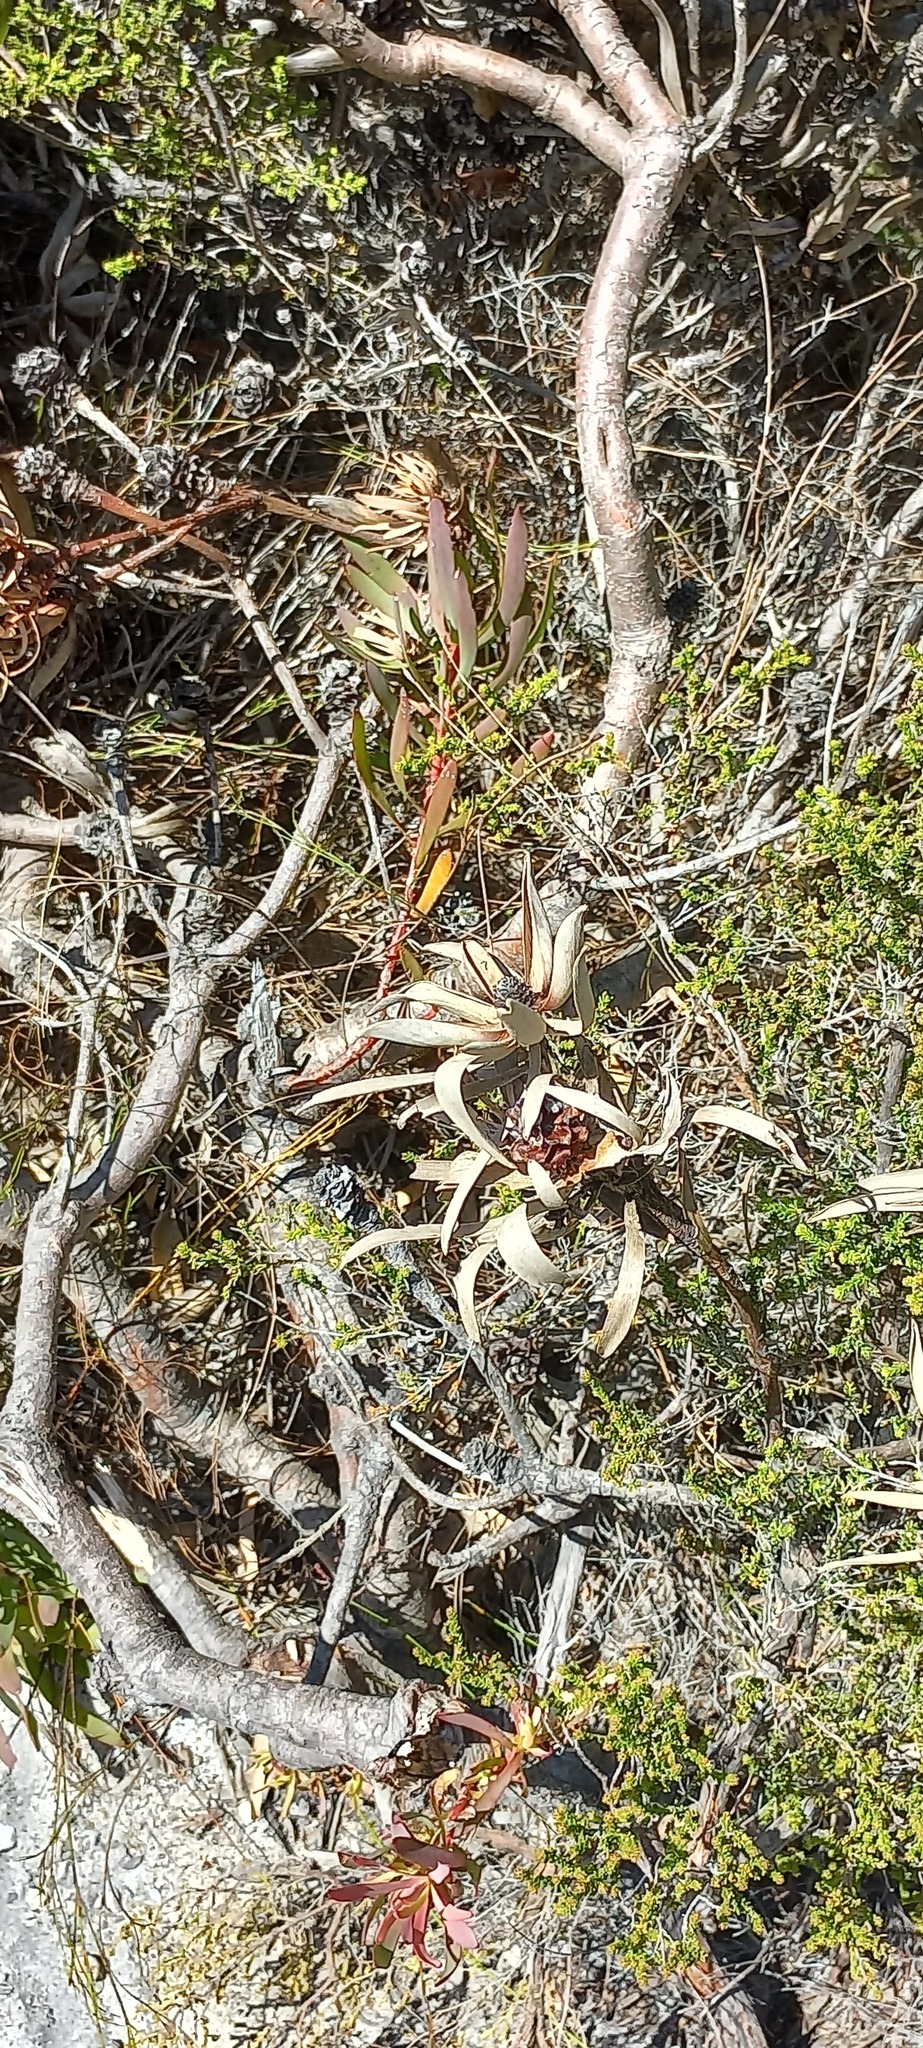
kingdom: Plantae
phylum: Tracheophyta
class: Magnoliopsida
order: Proteales
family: Proteaceae
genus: Leucadendron
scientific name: Leucadendron salignum
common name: Common sunshine conebush
